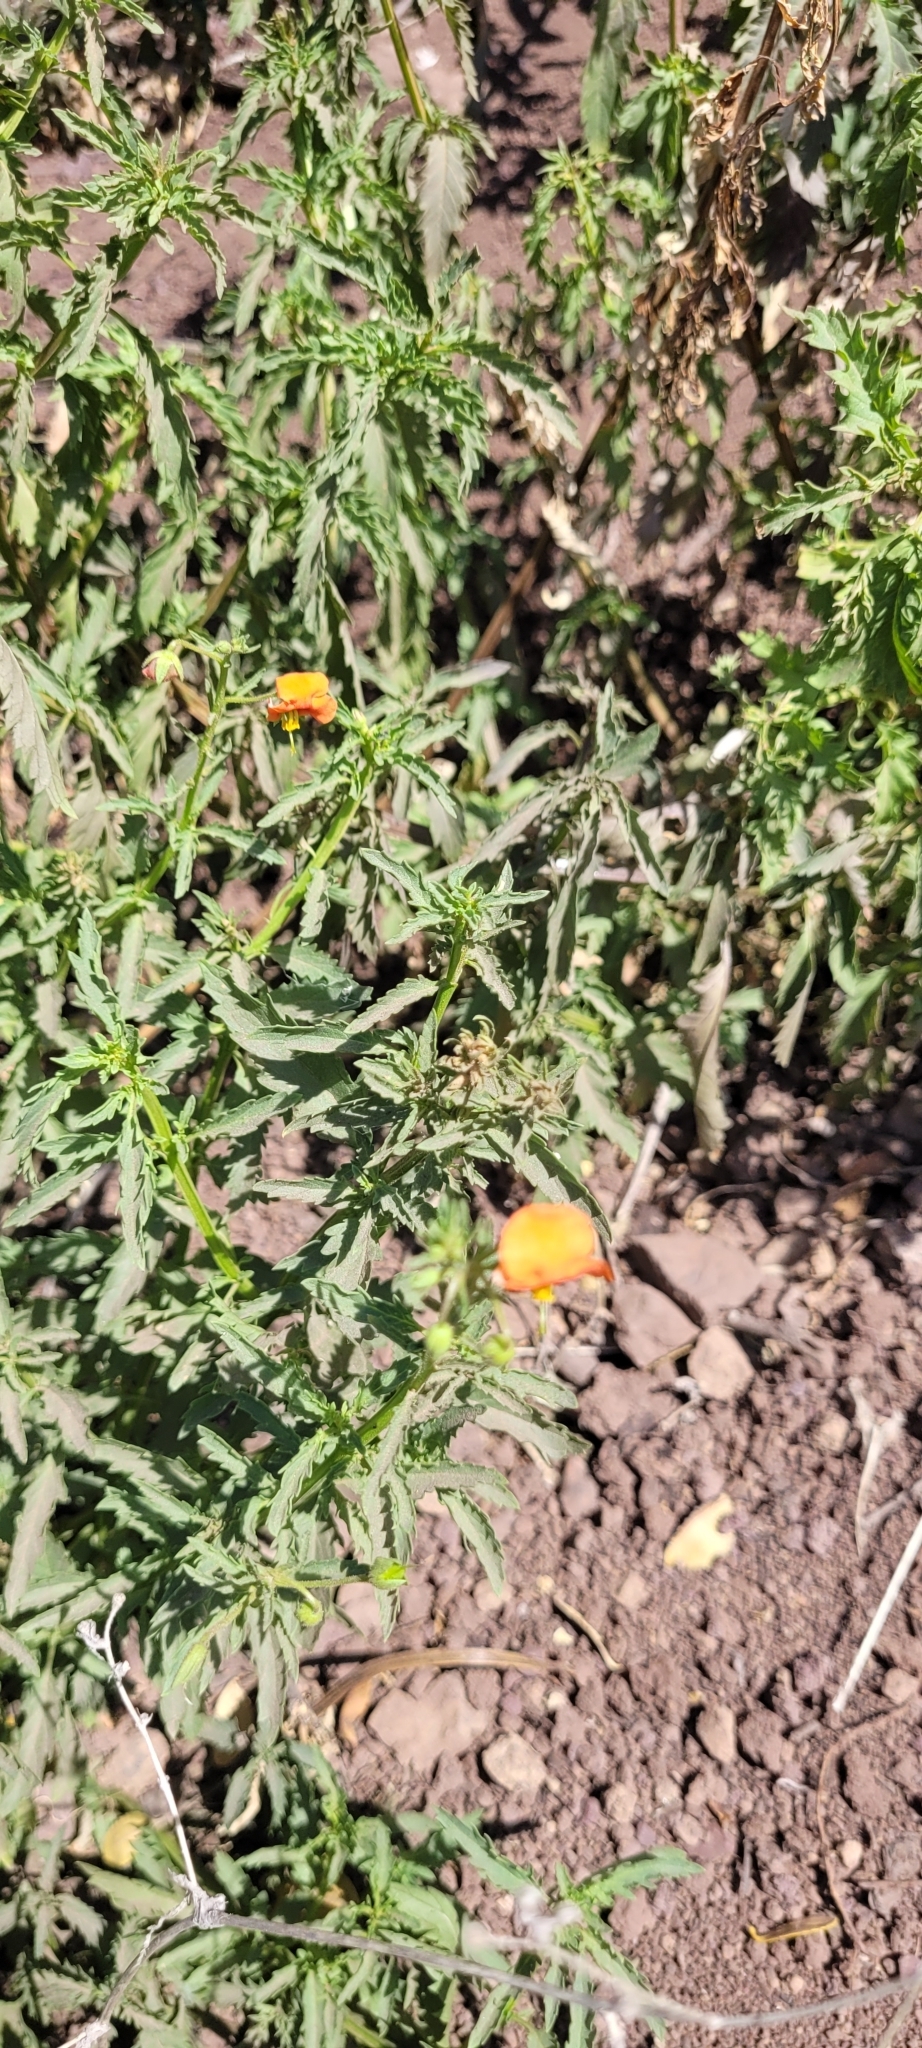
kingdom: Plantae
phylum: Tracheophyta
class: Magnoliopsida
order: Lamiales
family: Scrophulariaceae
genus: Alonsoa
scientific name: Alonsoa meridionalis
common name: Maskflower
